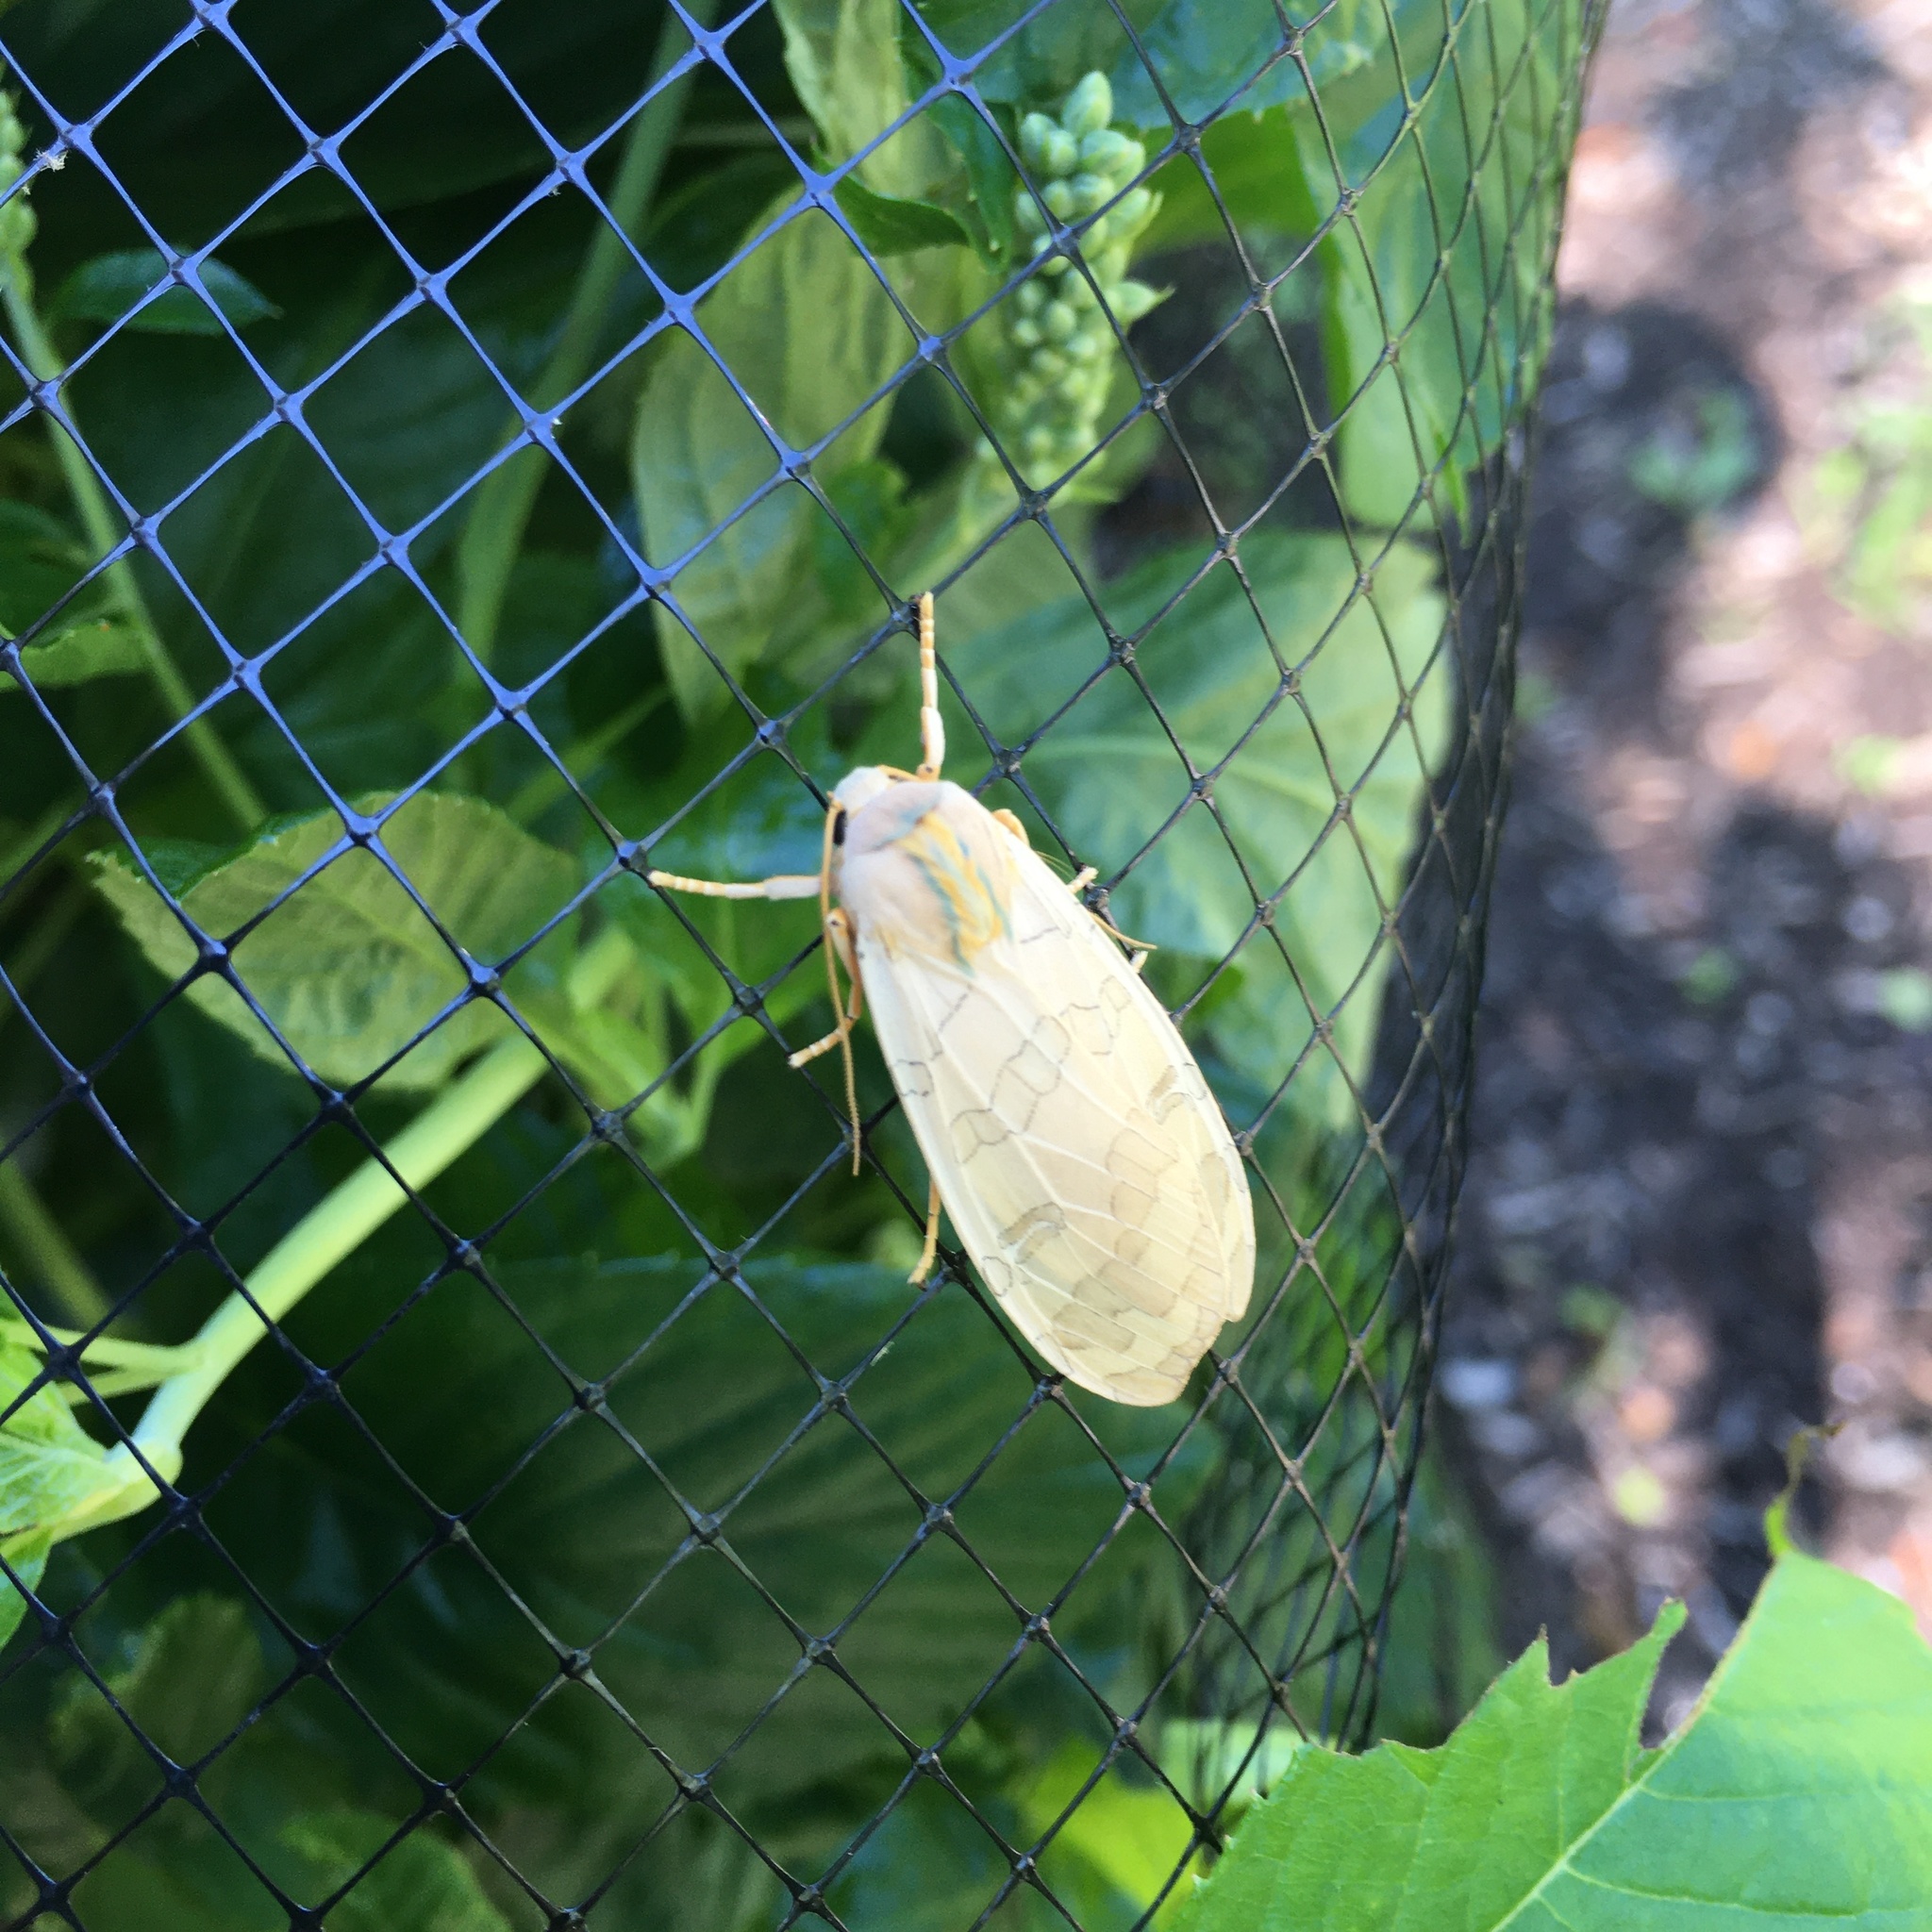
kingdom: Animalia
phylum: Arthropoda
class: Insecta
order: Lepidoptera
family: Erebidae
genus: Halysidota
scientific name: Halysidota
